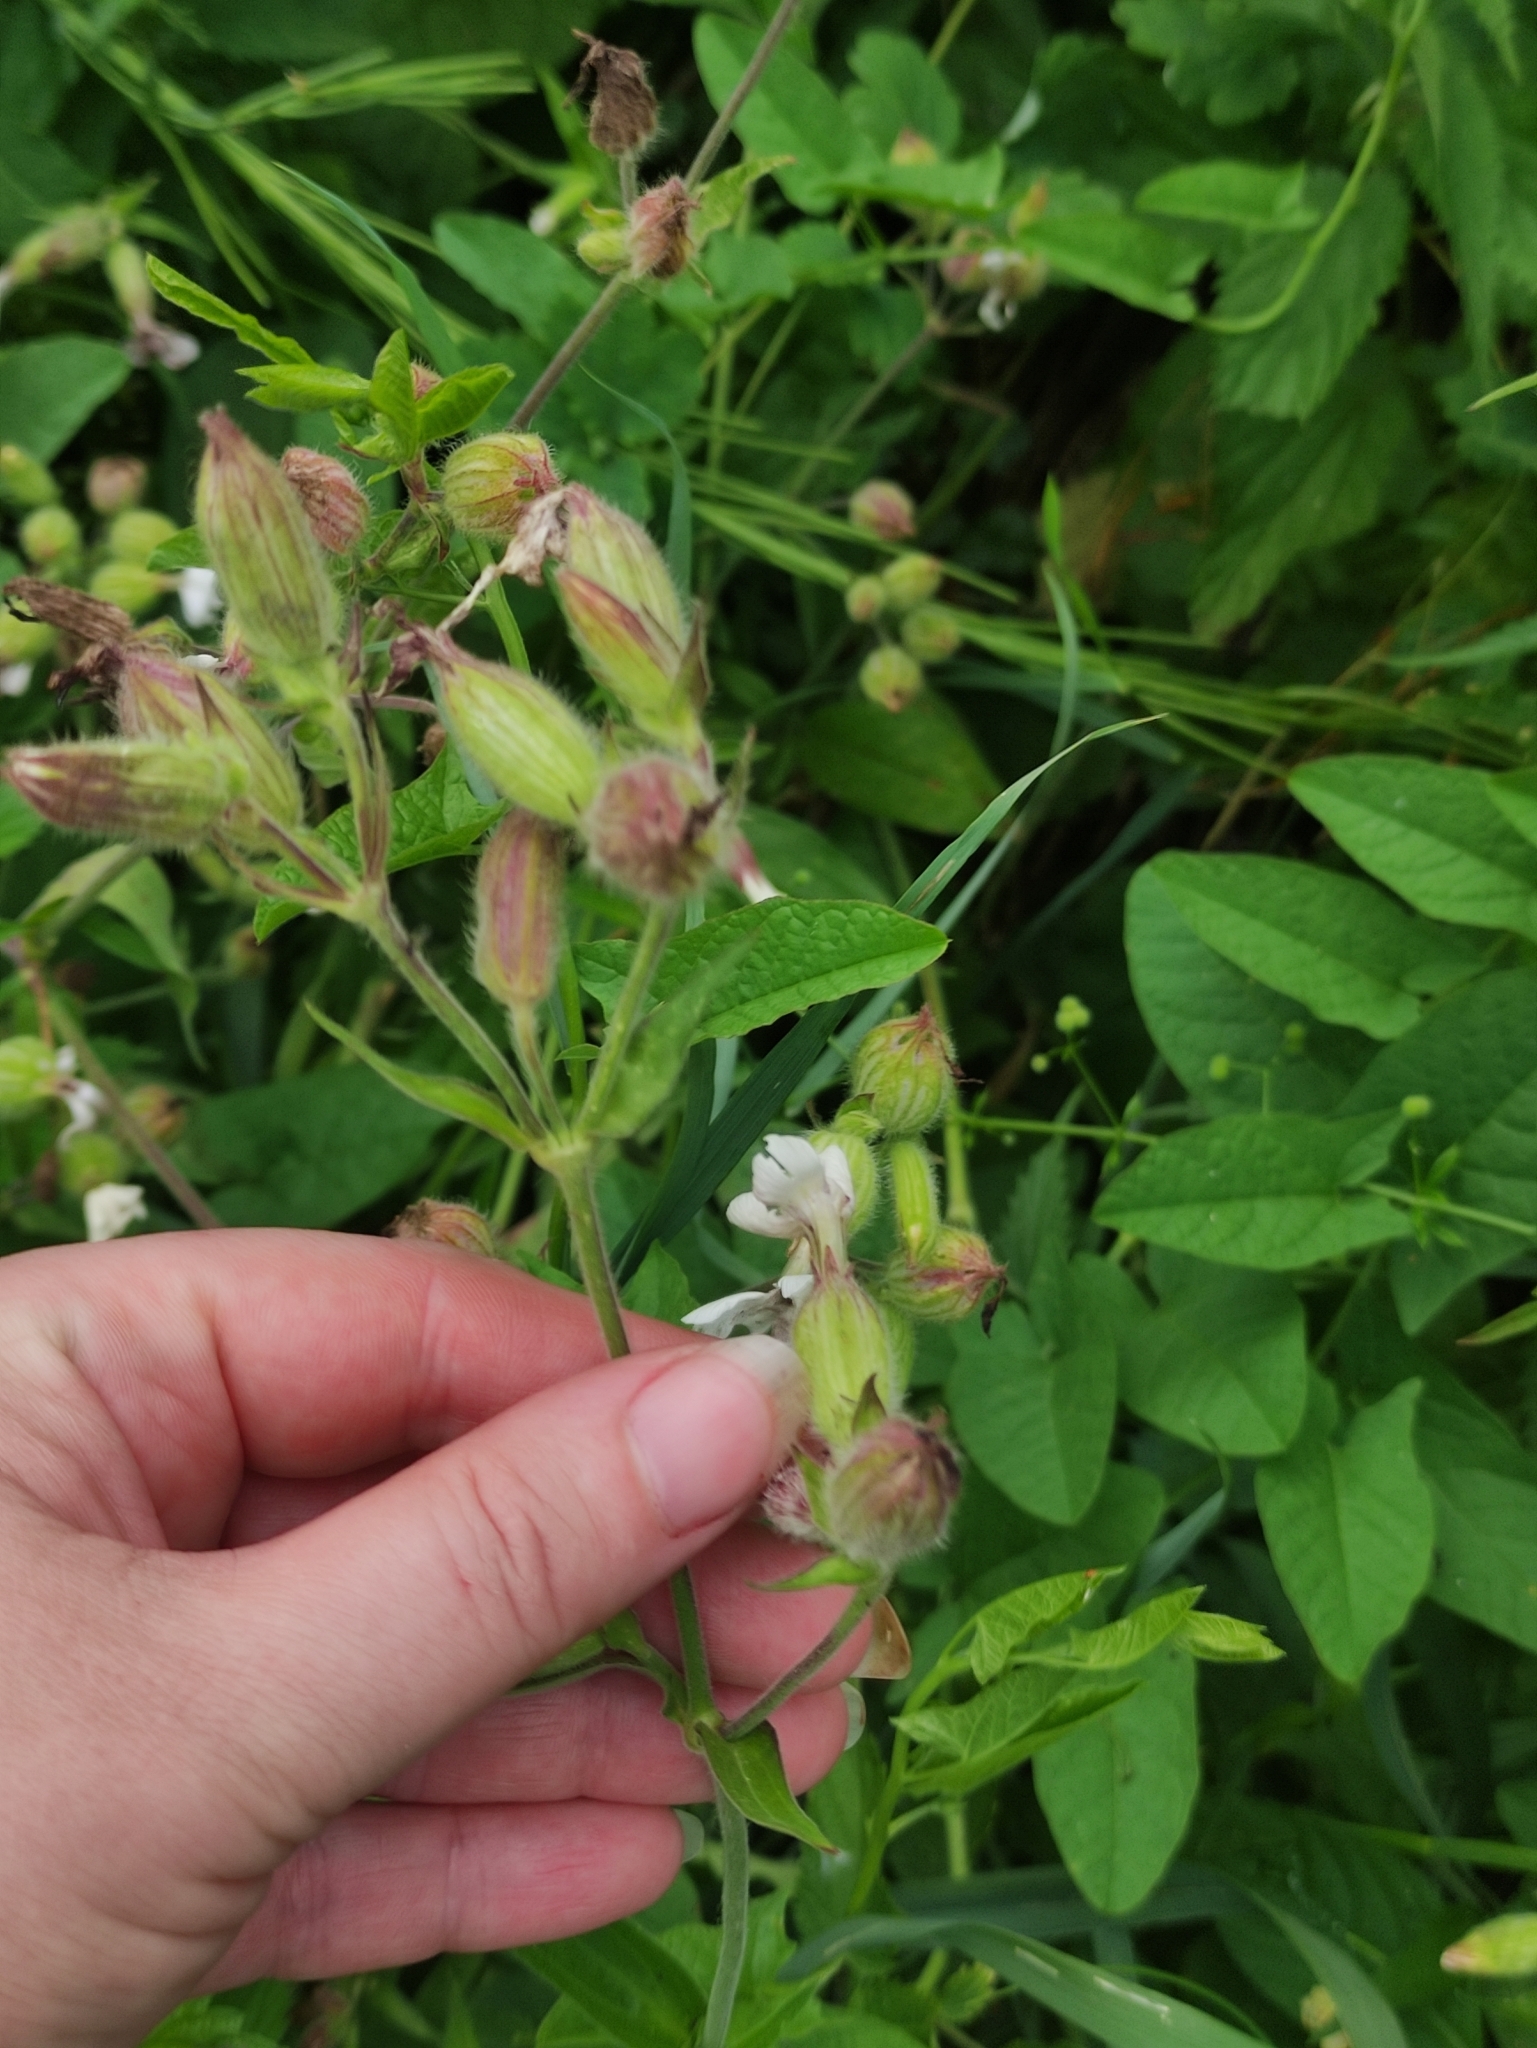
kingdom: Plantae
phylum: Tracheophyta
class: Magnoliopsida
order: Caryophyllales
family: Caryophyllaceae
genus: Silene
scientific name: Silene latifolia
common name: White campion
